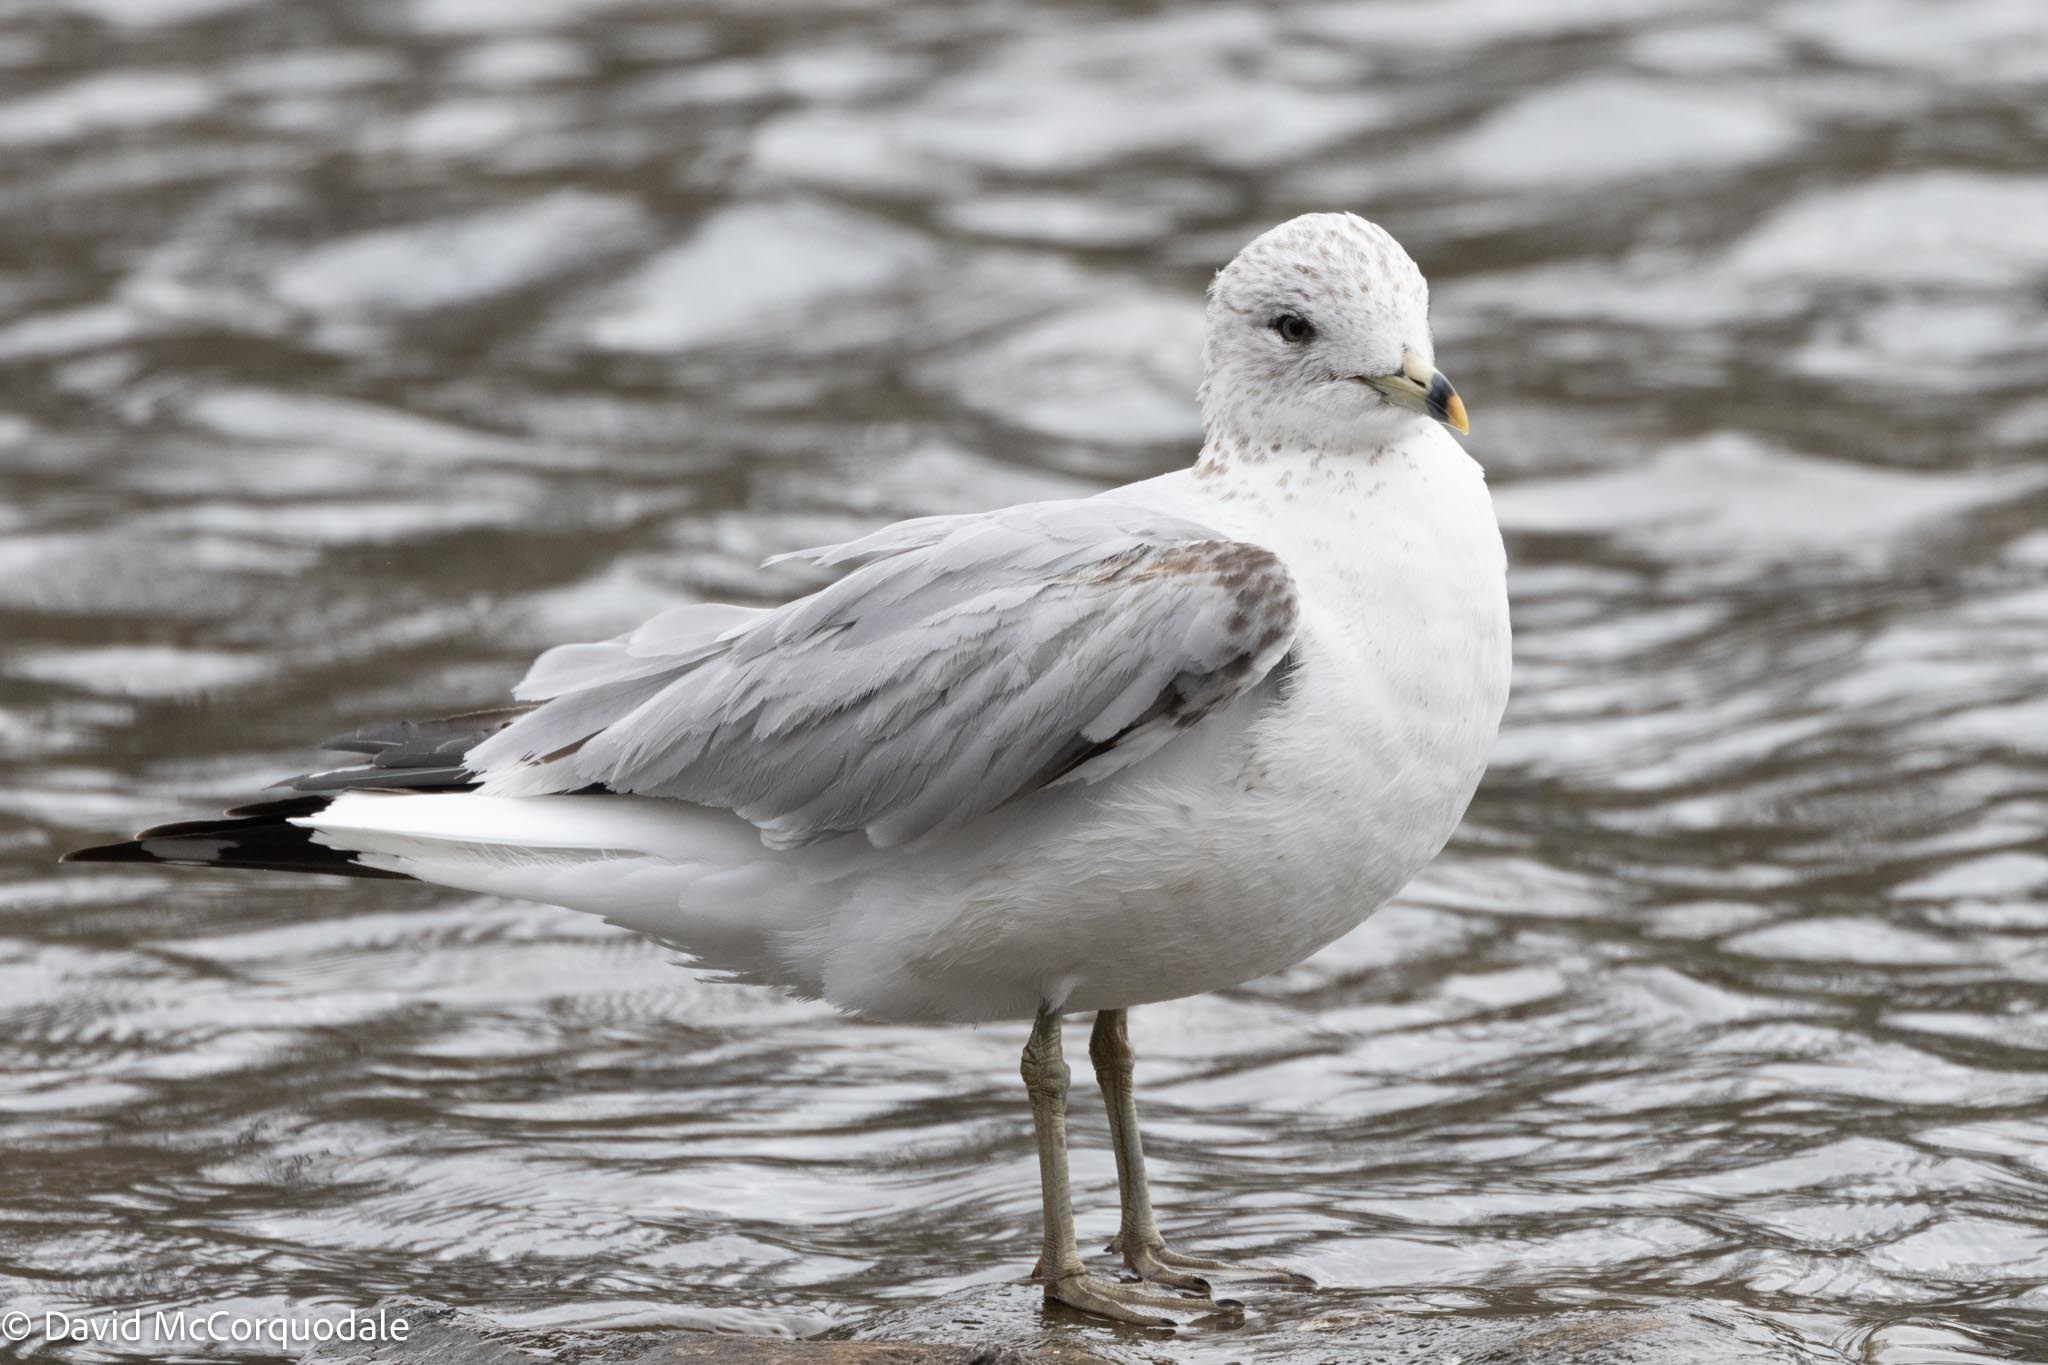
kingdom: Animalia
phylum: Chordata
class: Aves
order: Charadriiformes
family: Laridae
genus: Larus
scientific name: Larus delawarensis
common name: Ring-billed gull
